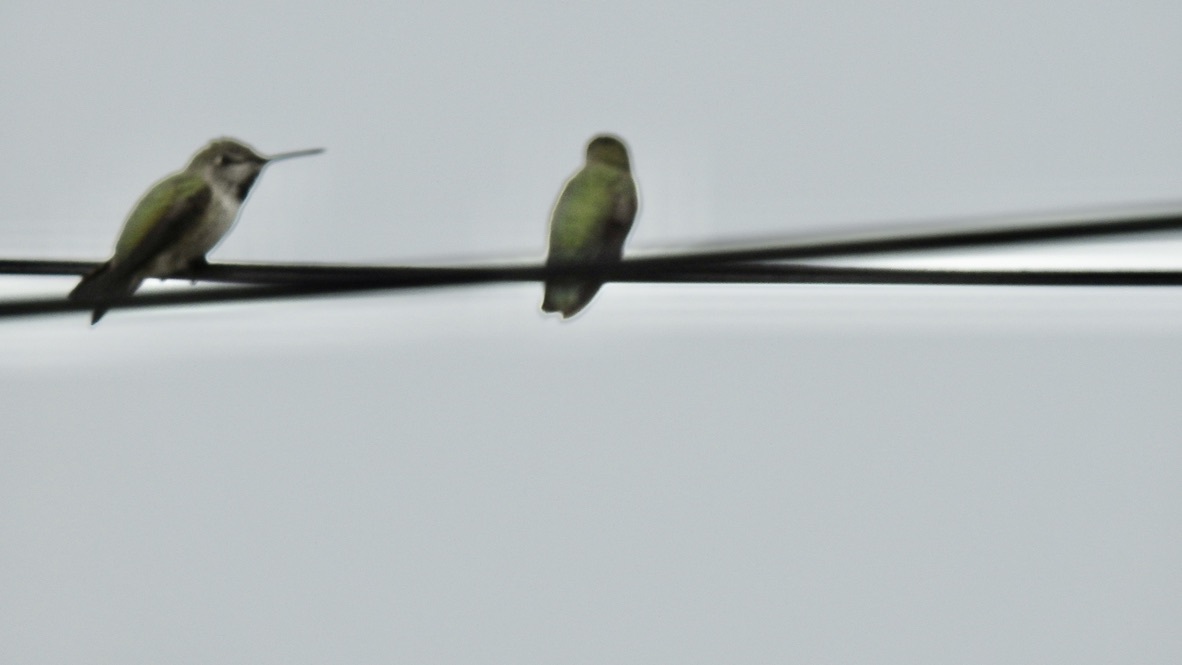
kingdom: Animalia
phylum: Chordata
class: Aves
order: Apodiformes
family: Trochilidae
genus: Calypte
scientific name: Calypte anna
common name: Anna's hummingbird
